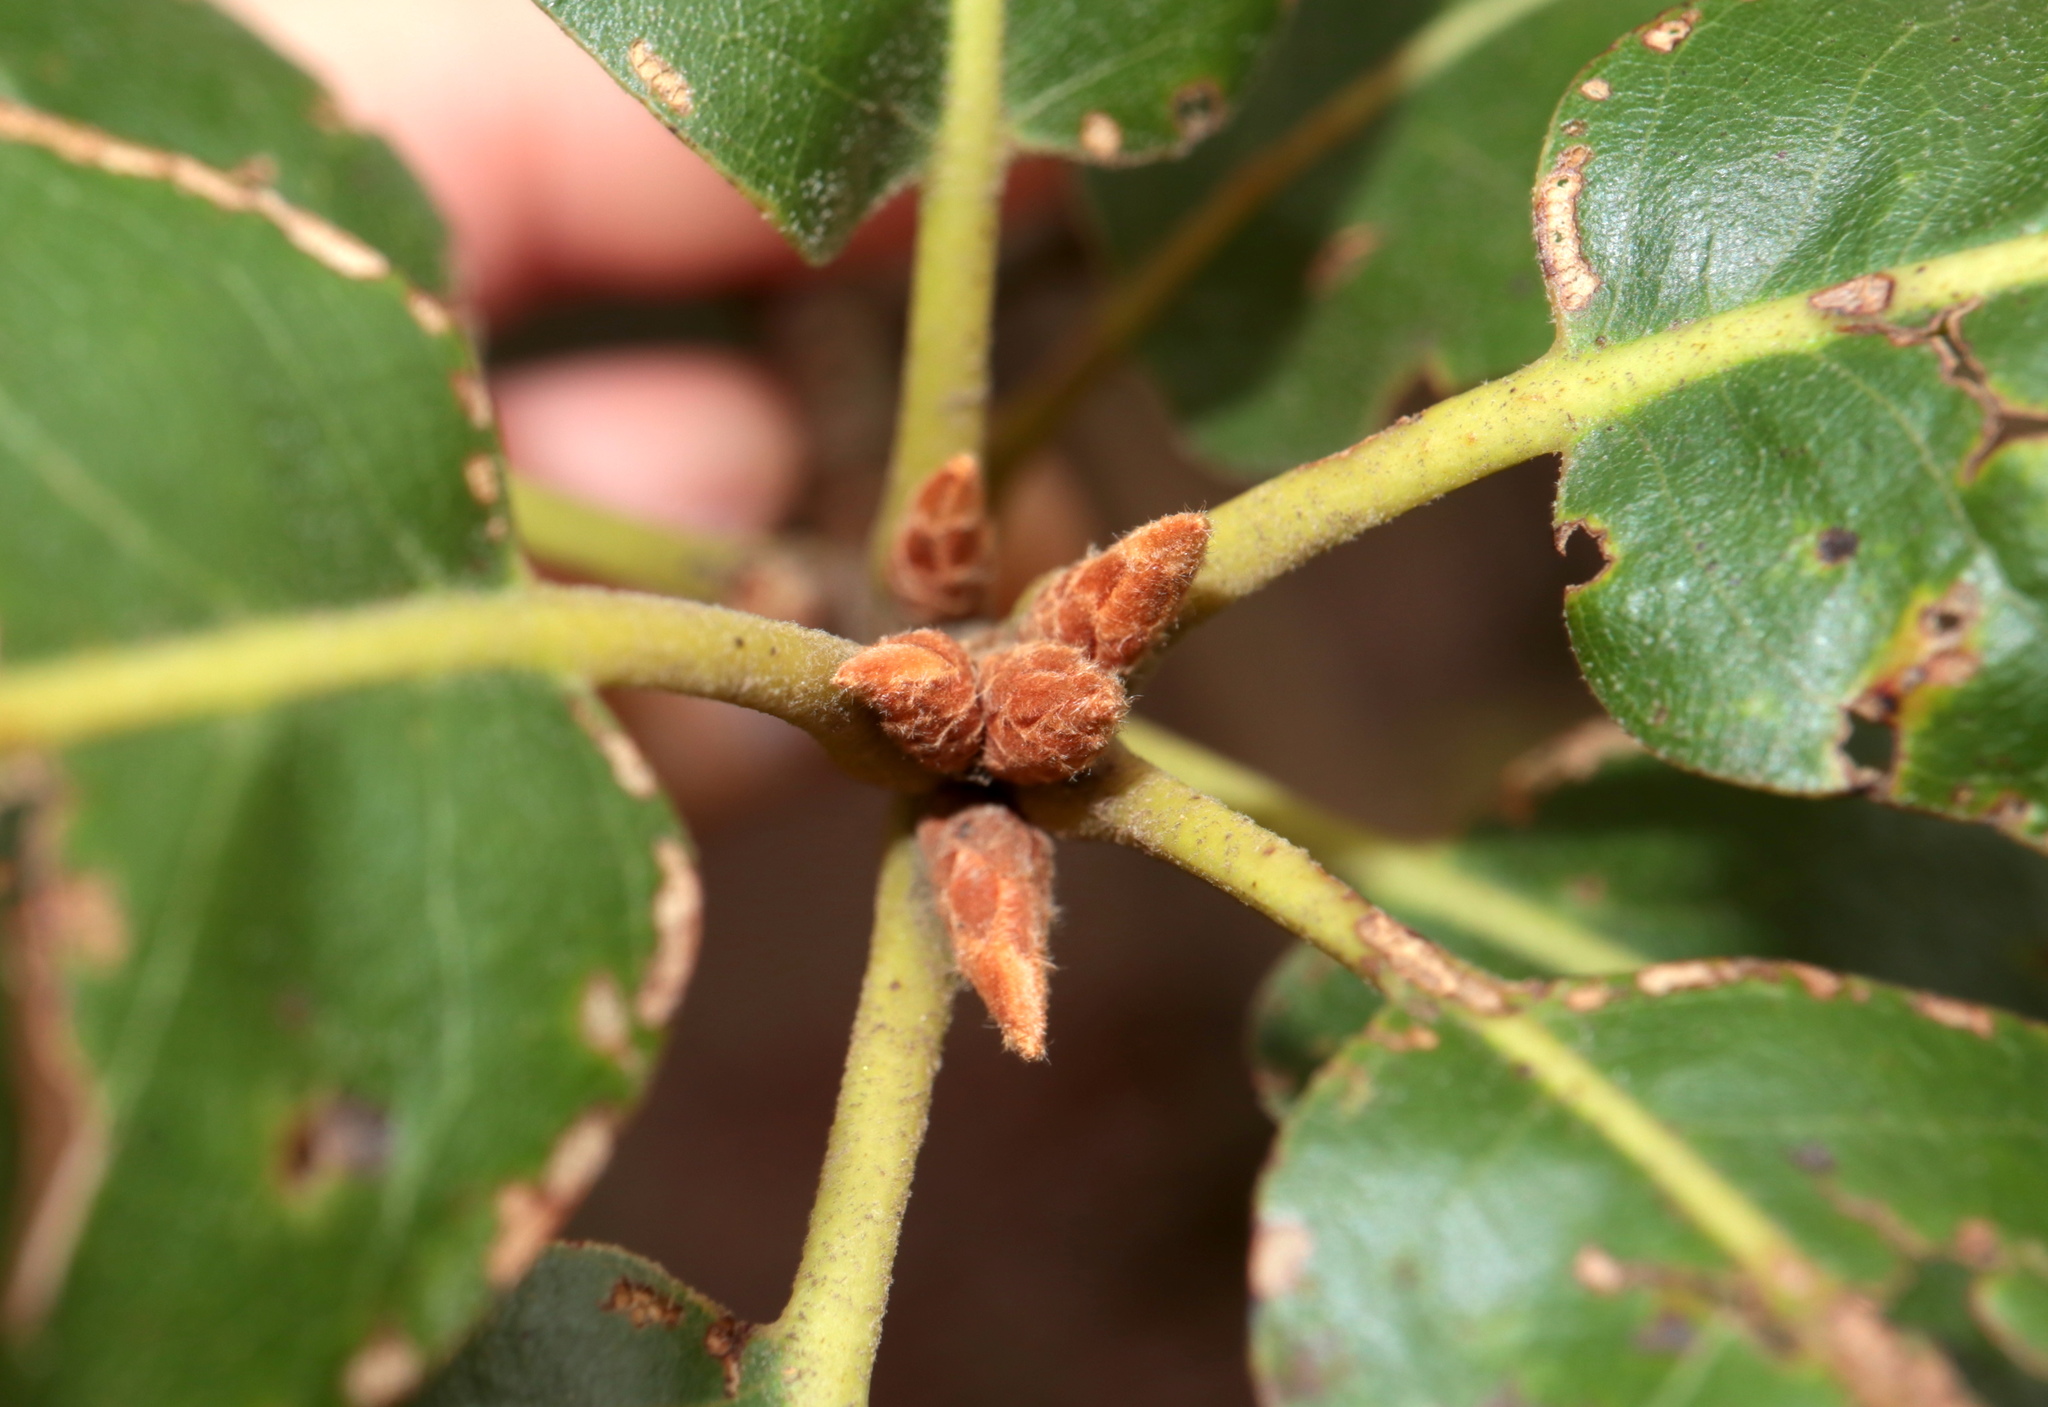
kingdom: Plantae
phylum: Tracheophyta
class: Magnoliopsida
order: Fagales
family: Fagaceae
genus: Quercus
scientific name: Quercus marilandica
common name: Blackjack oak
